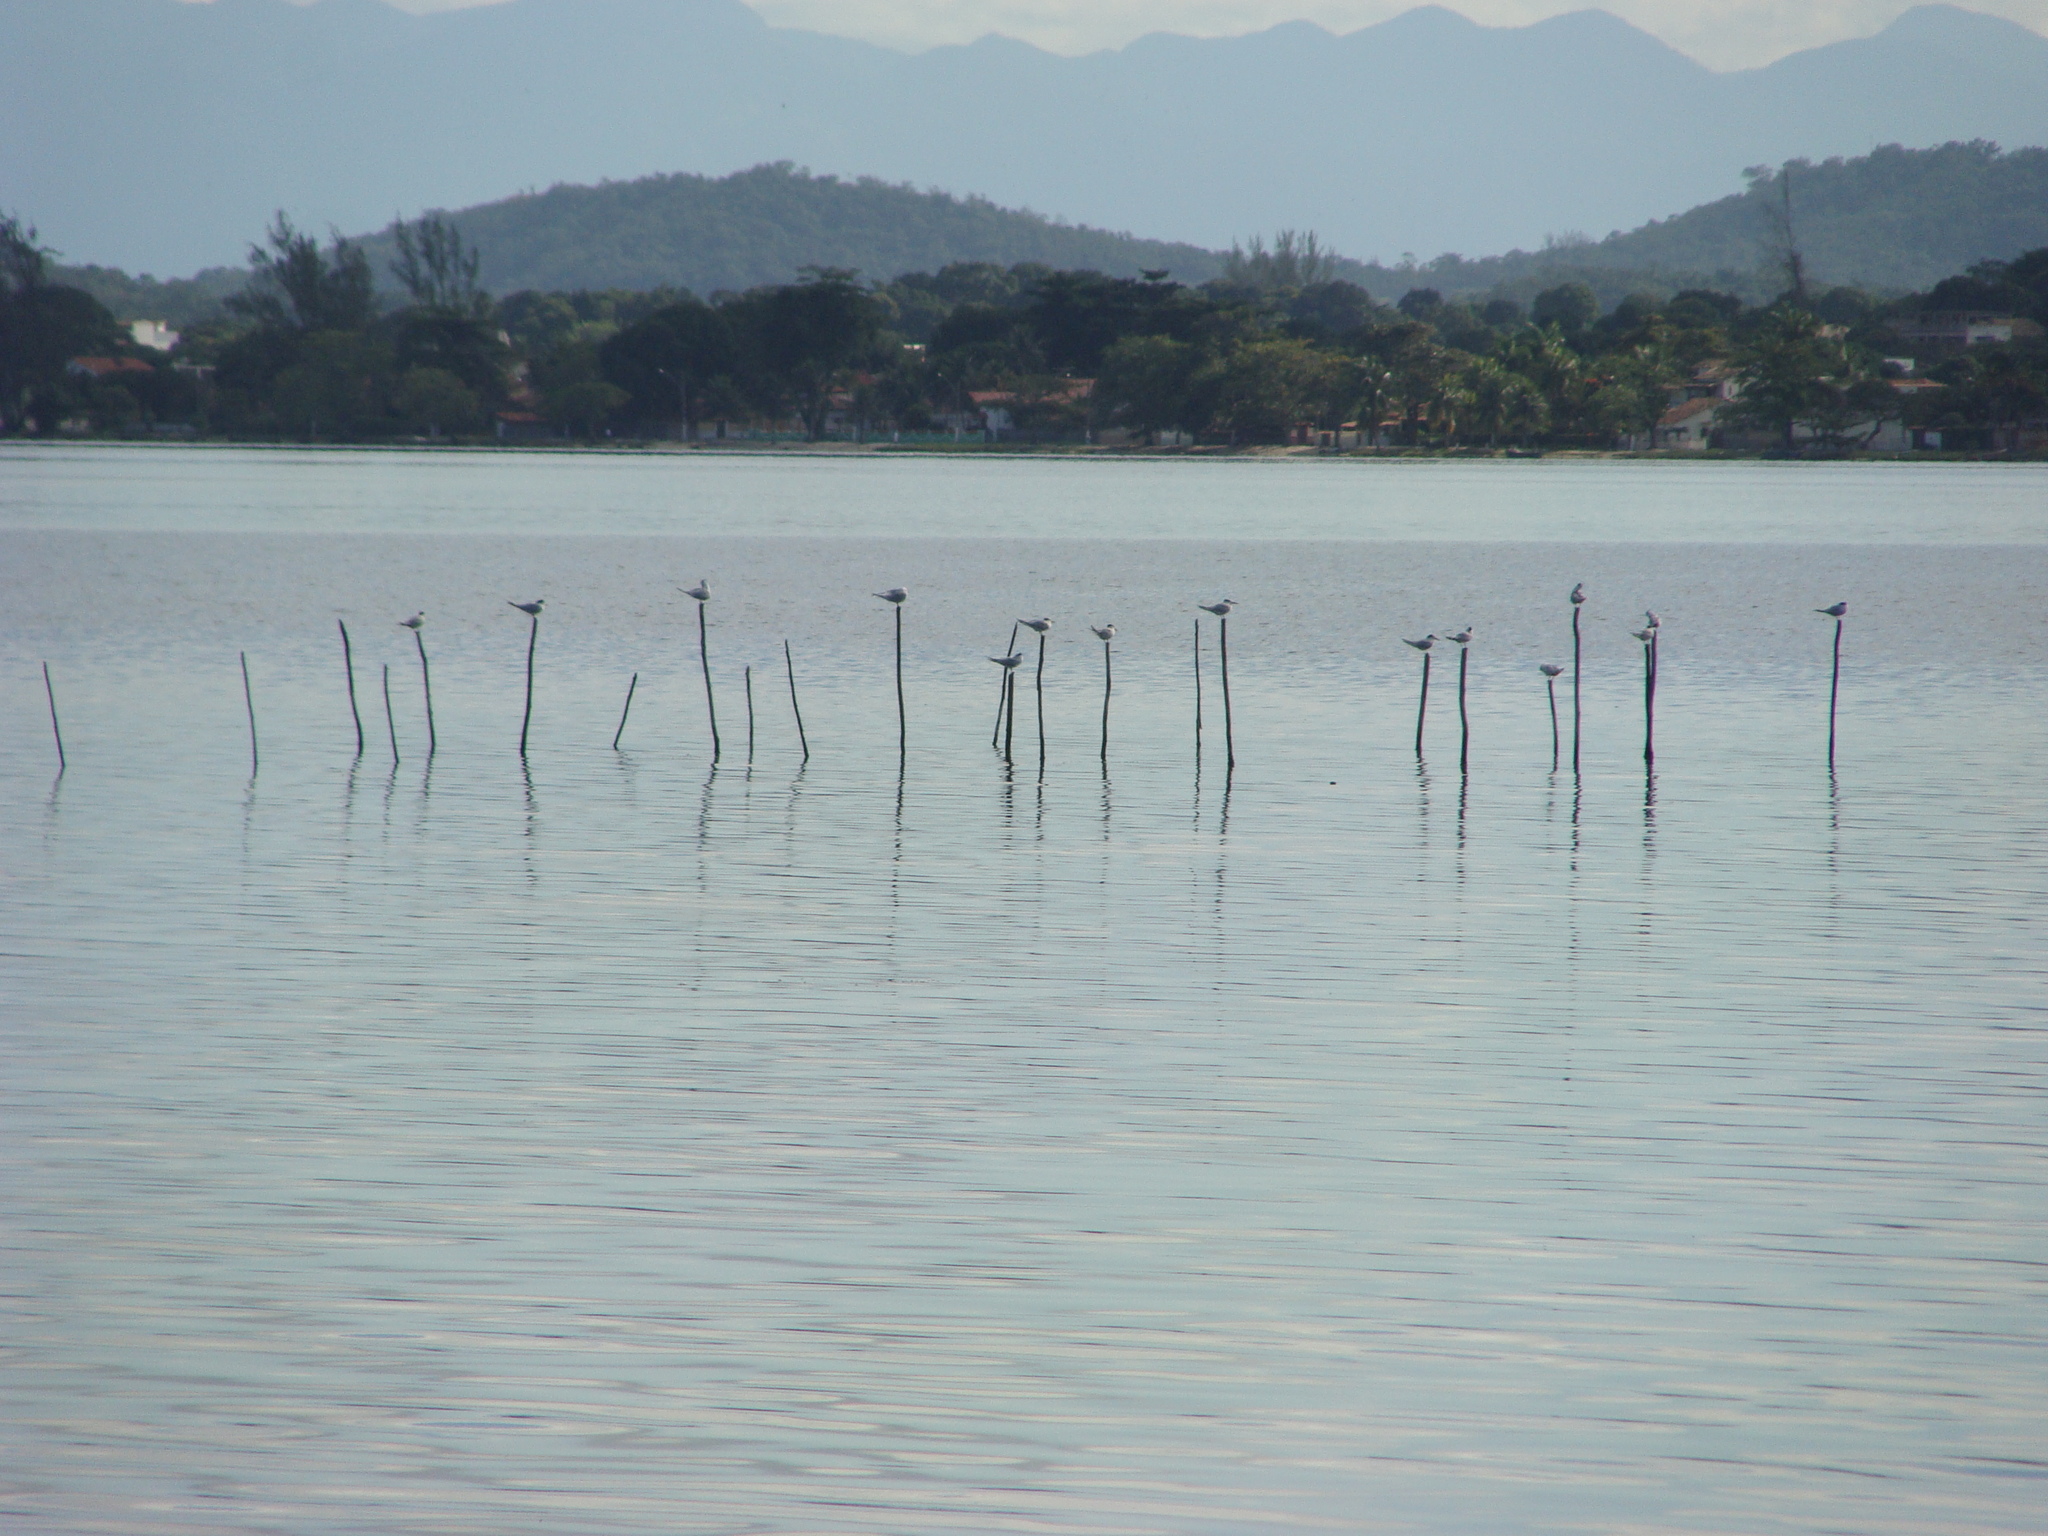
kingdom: Animalia
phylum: Chordata
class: Aves
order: Charadriiformes
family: Laridae
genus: Thalasseus
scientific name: Thalasseus sandvicensis
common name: Sandwich tern
